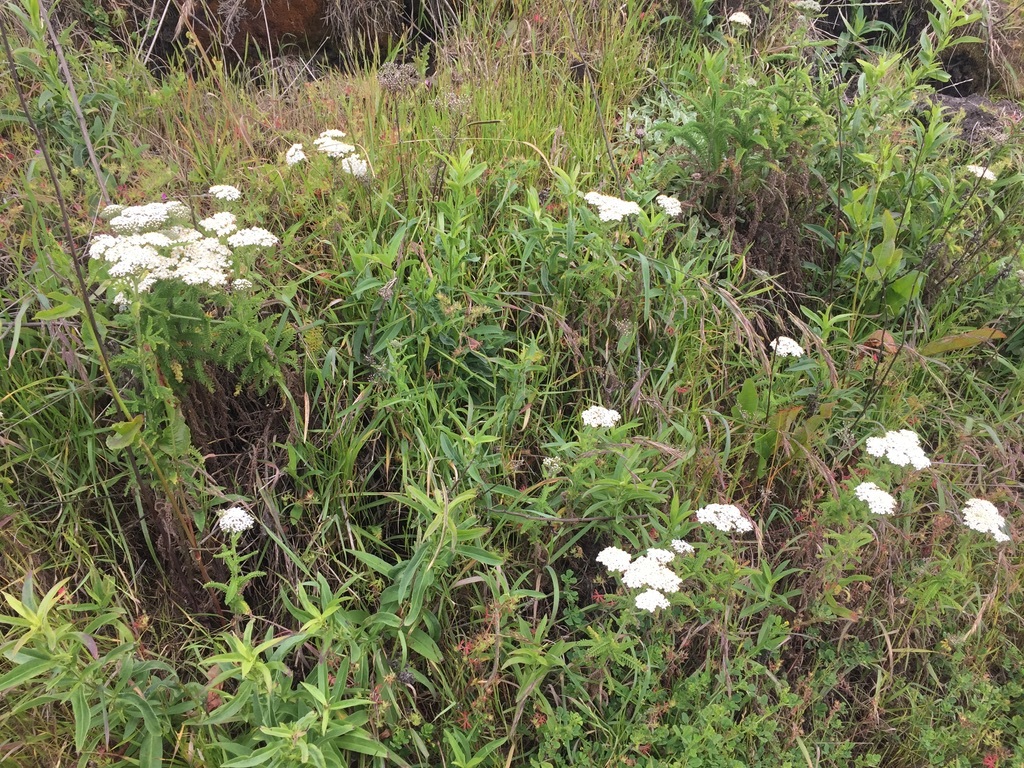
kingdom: Plantae
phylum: Tracheophyta
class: Magnoliopsida
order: Asterales
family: Asteraceae
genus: Achillea
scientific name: Achillea millefolium
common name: Yarrow
